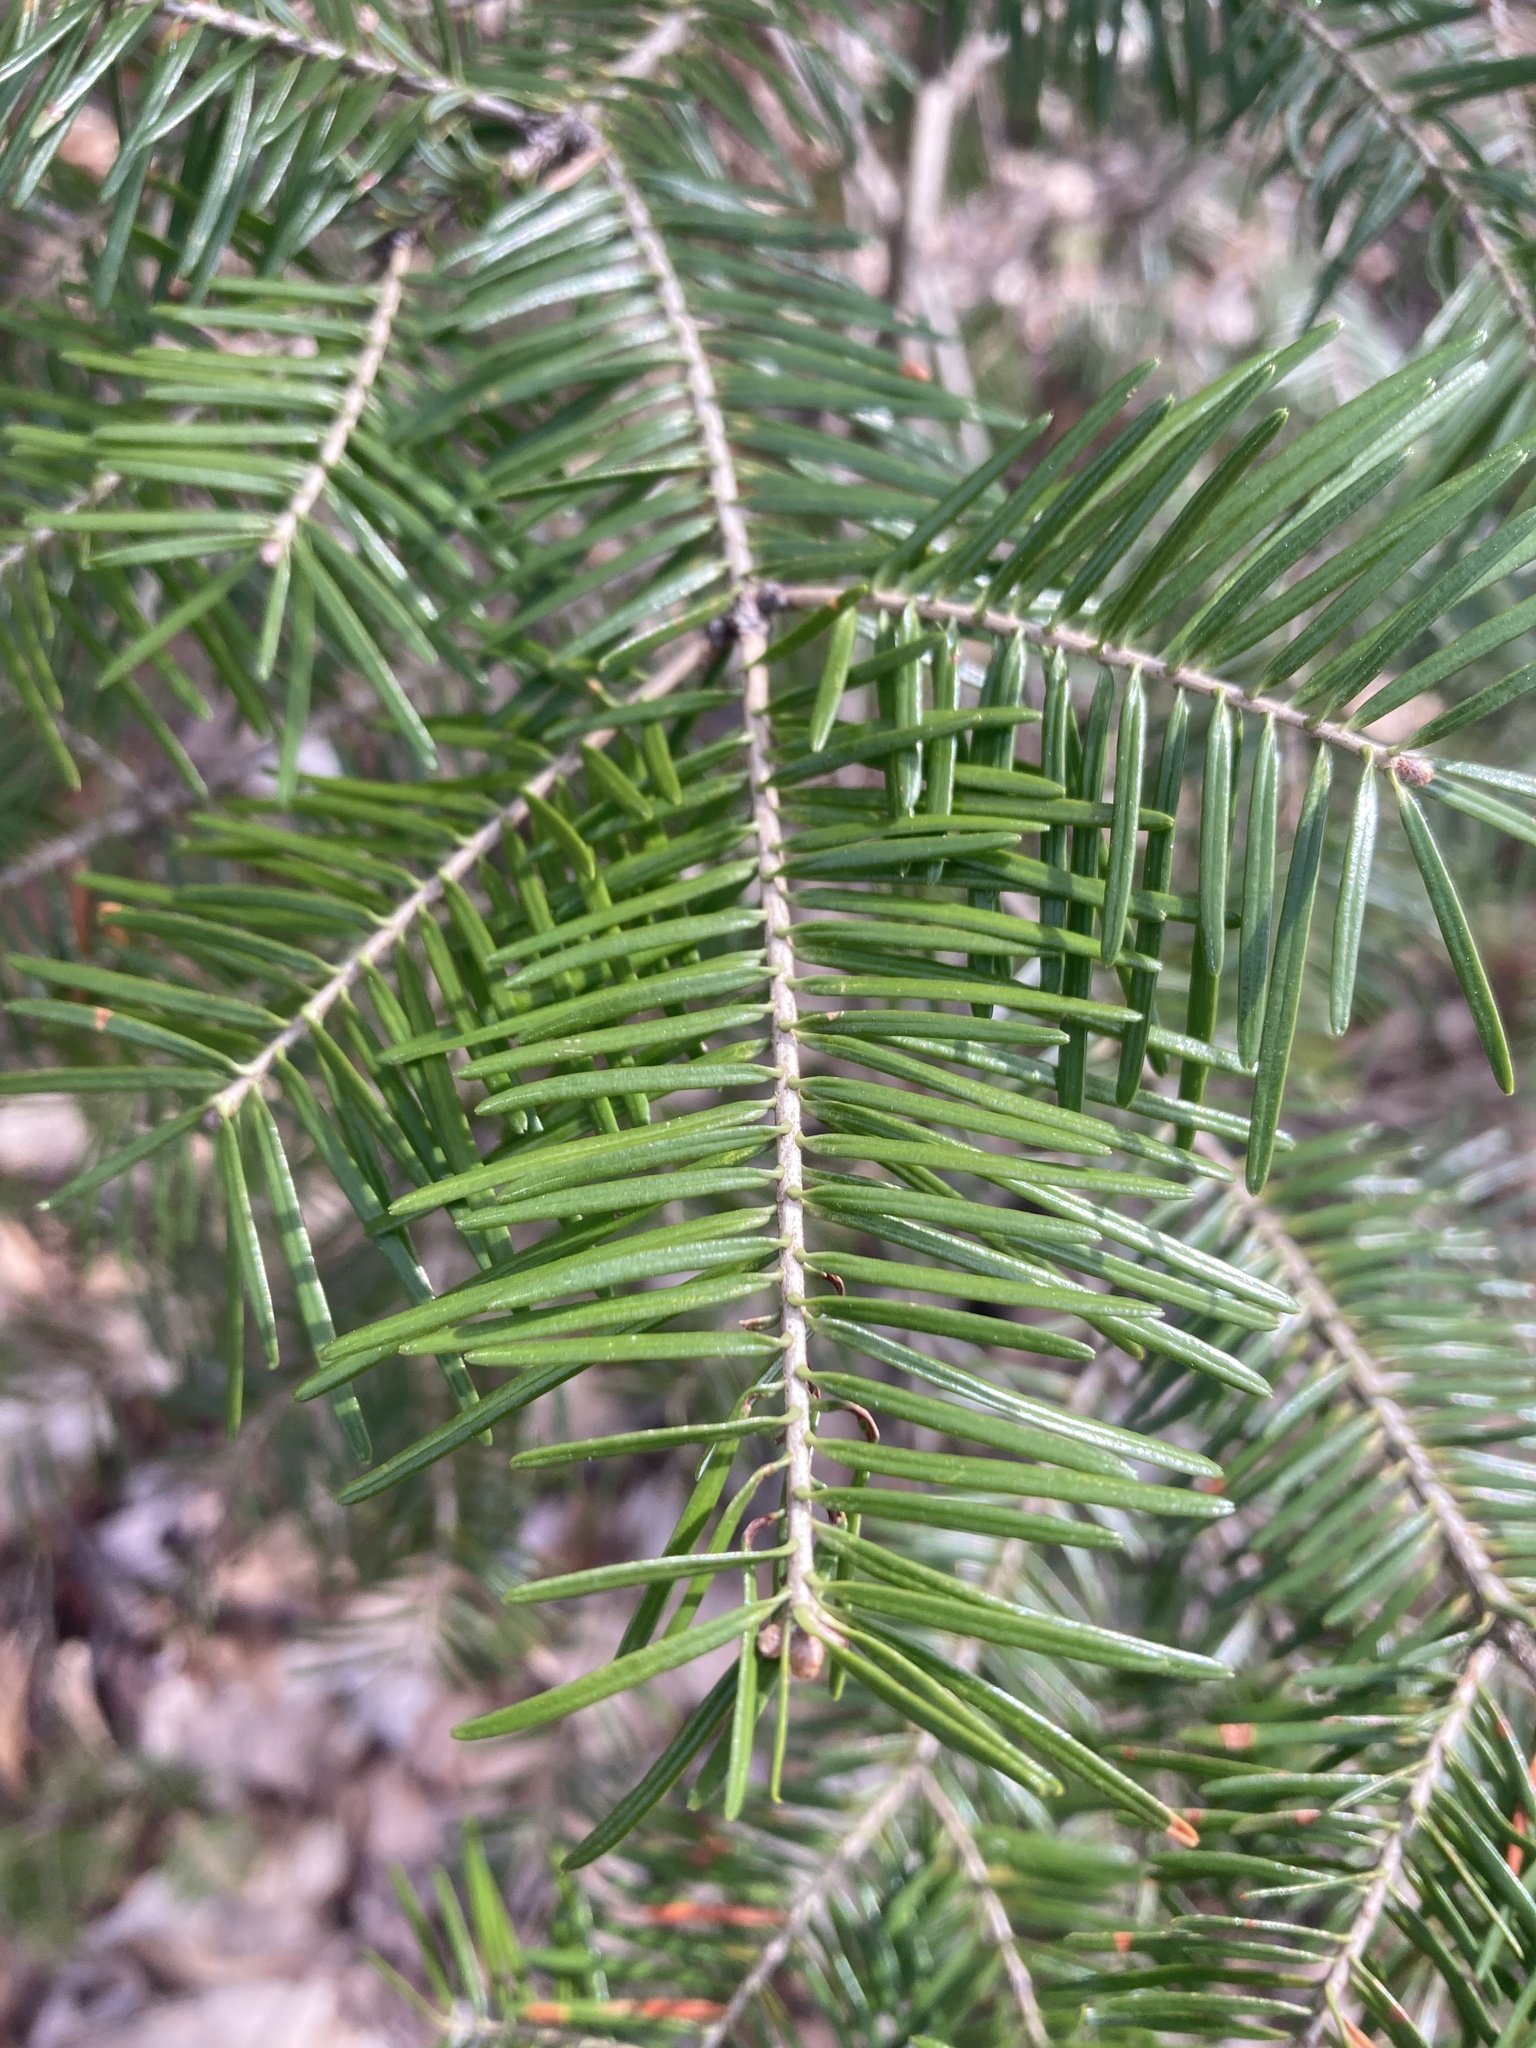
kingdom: Plantae
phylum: Tracheophyta
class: Pinopsida
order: Pinales
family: Pinaceae
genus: Abies
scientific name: Abies balsamea
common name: Balsam fir
